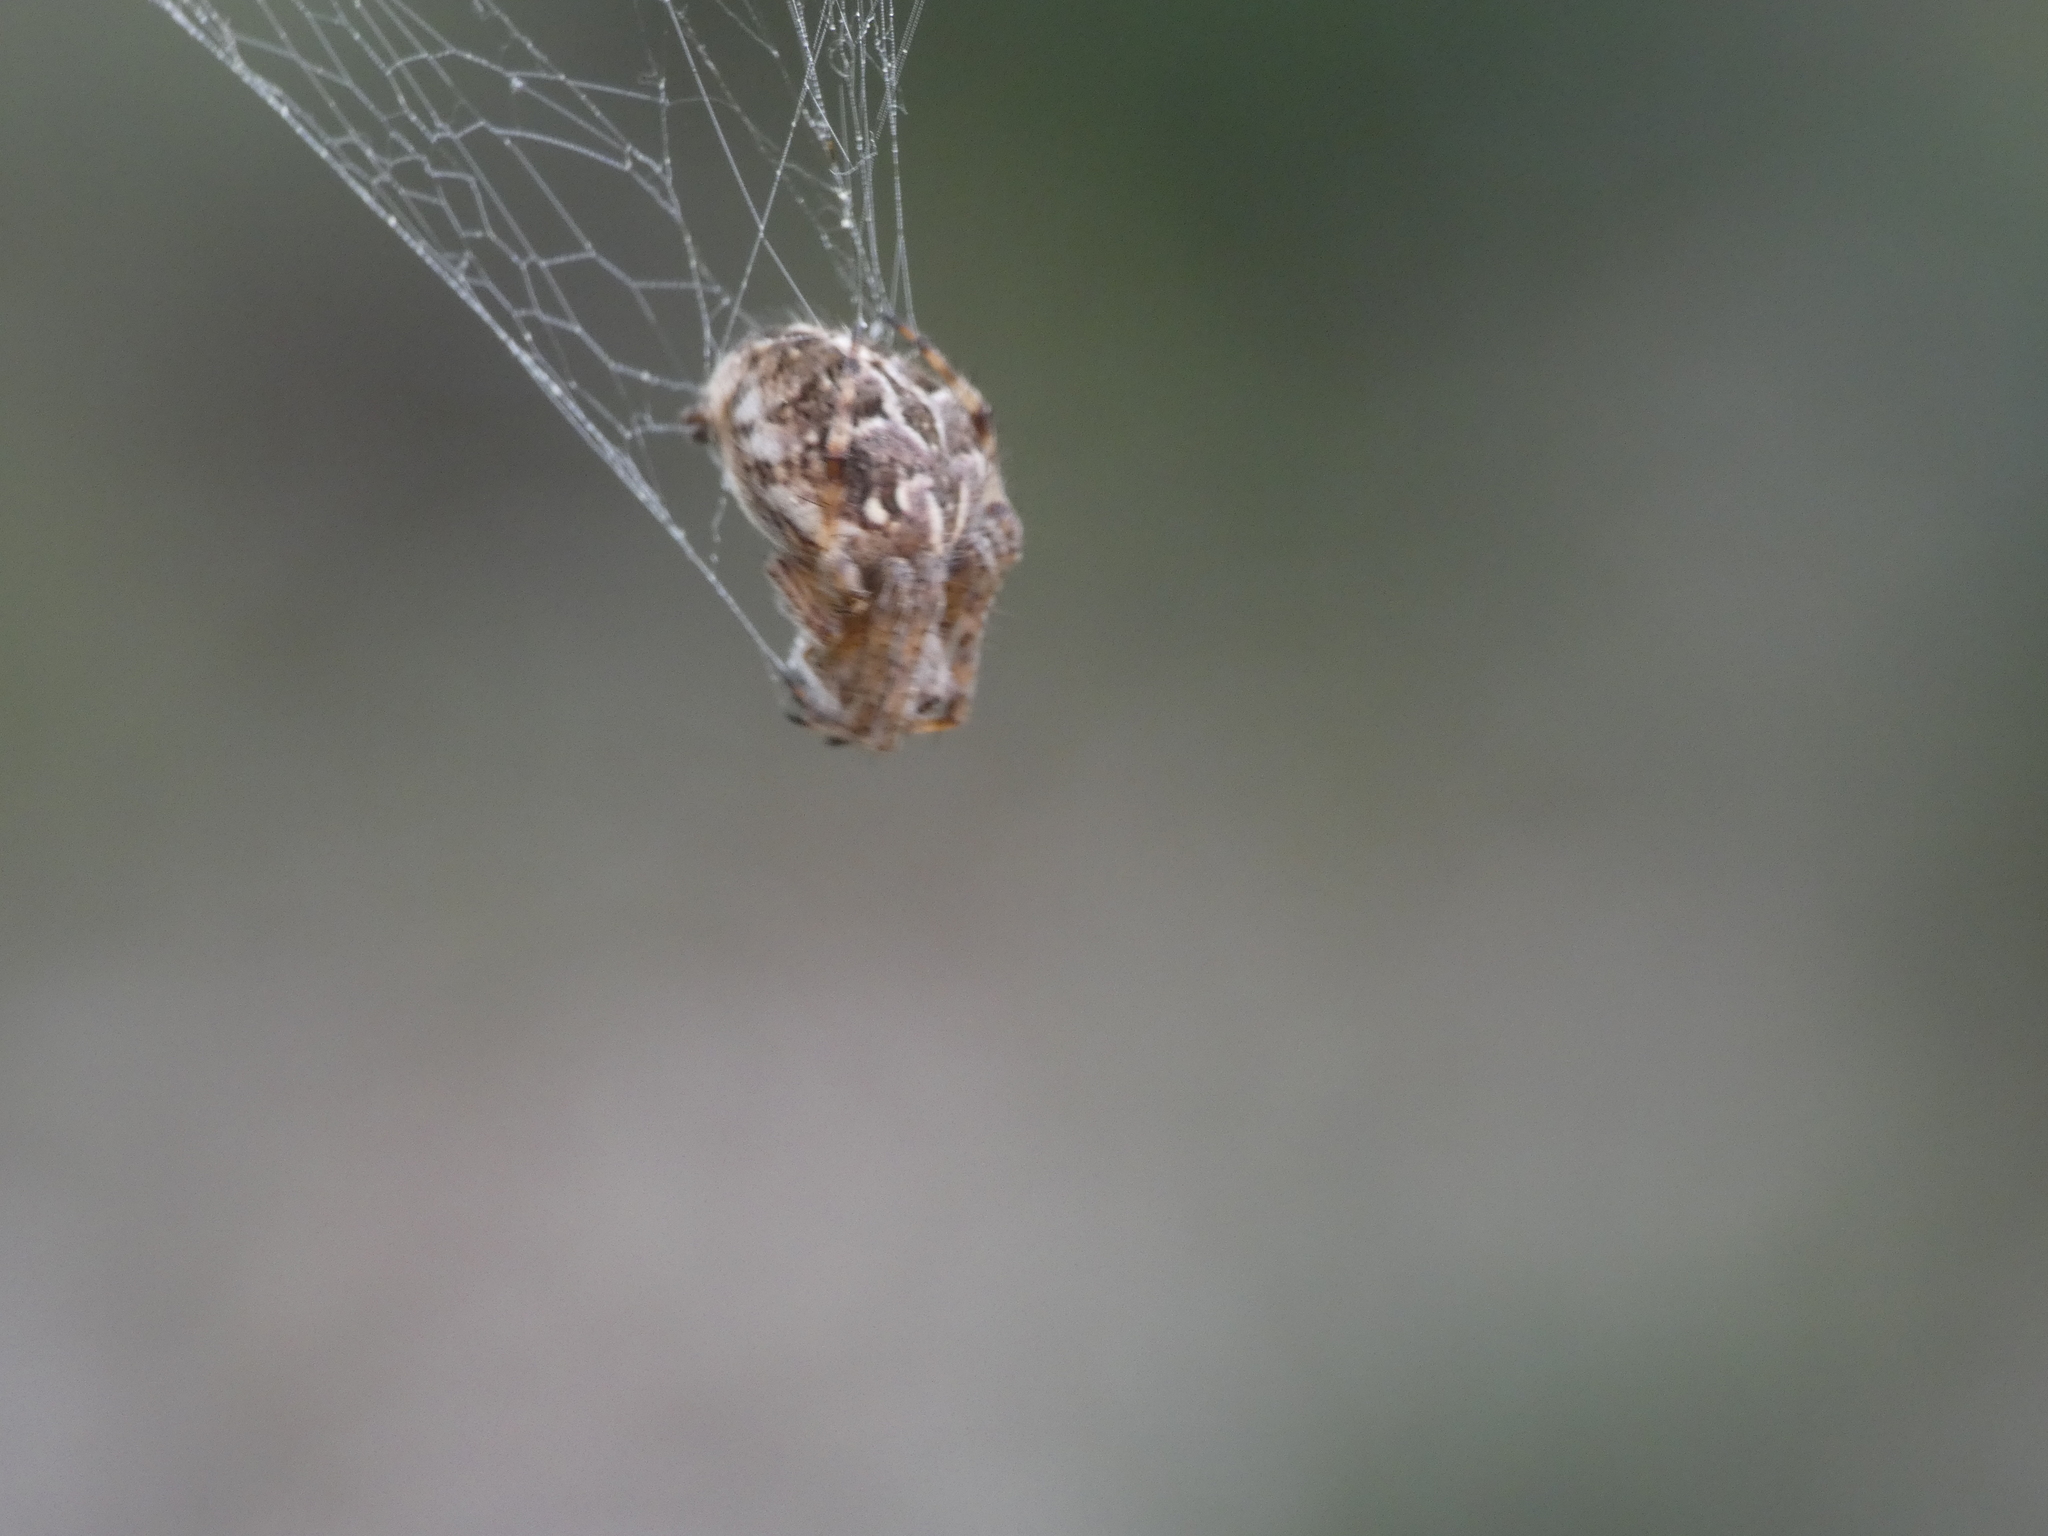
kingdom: Animalia
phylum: Arthropoda
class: Arachnida
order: Araneae
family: Araneidae
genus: Agalenatea
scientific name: Agalenatea redii
